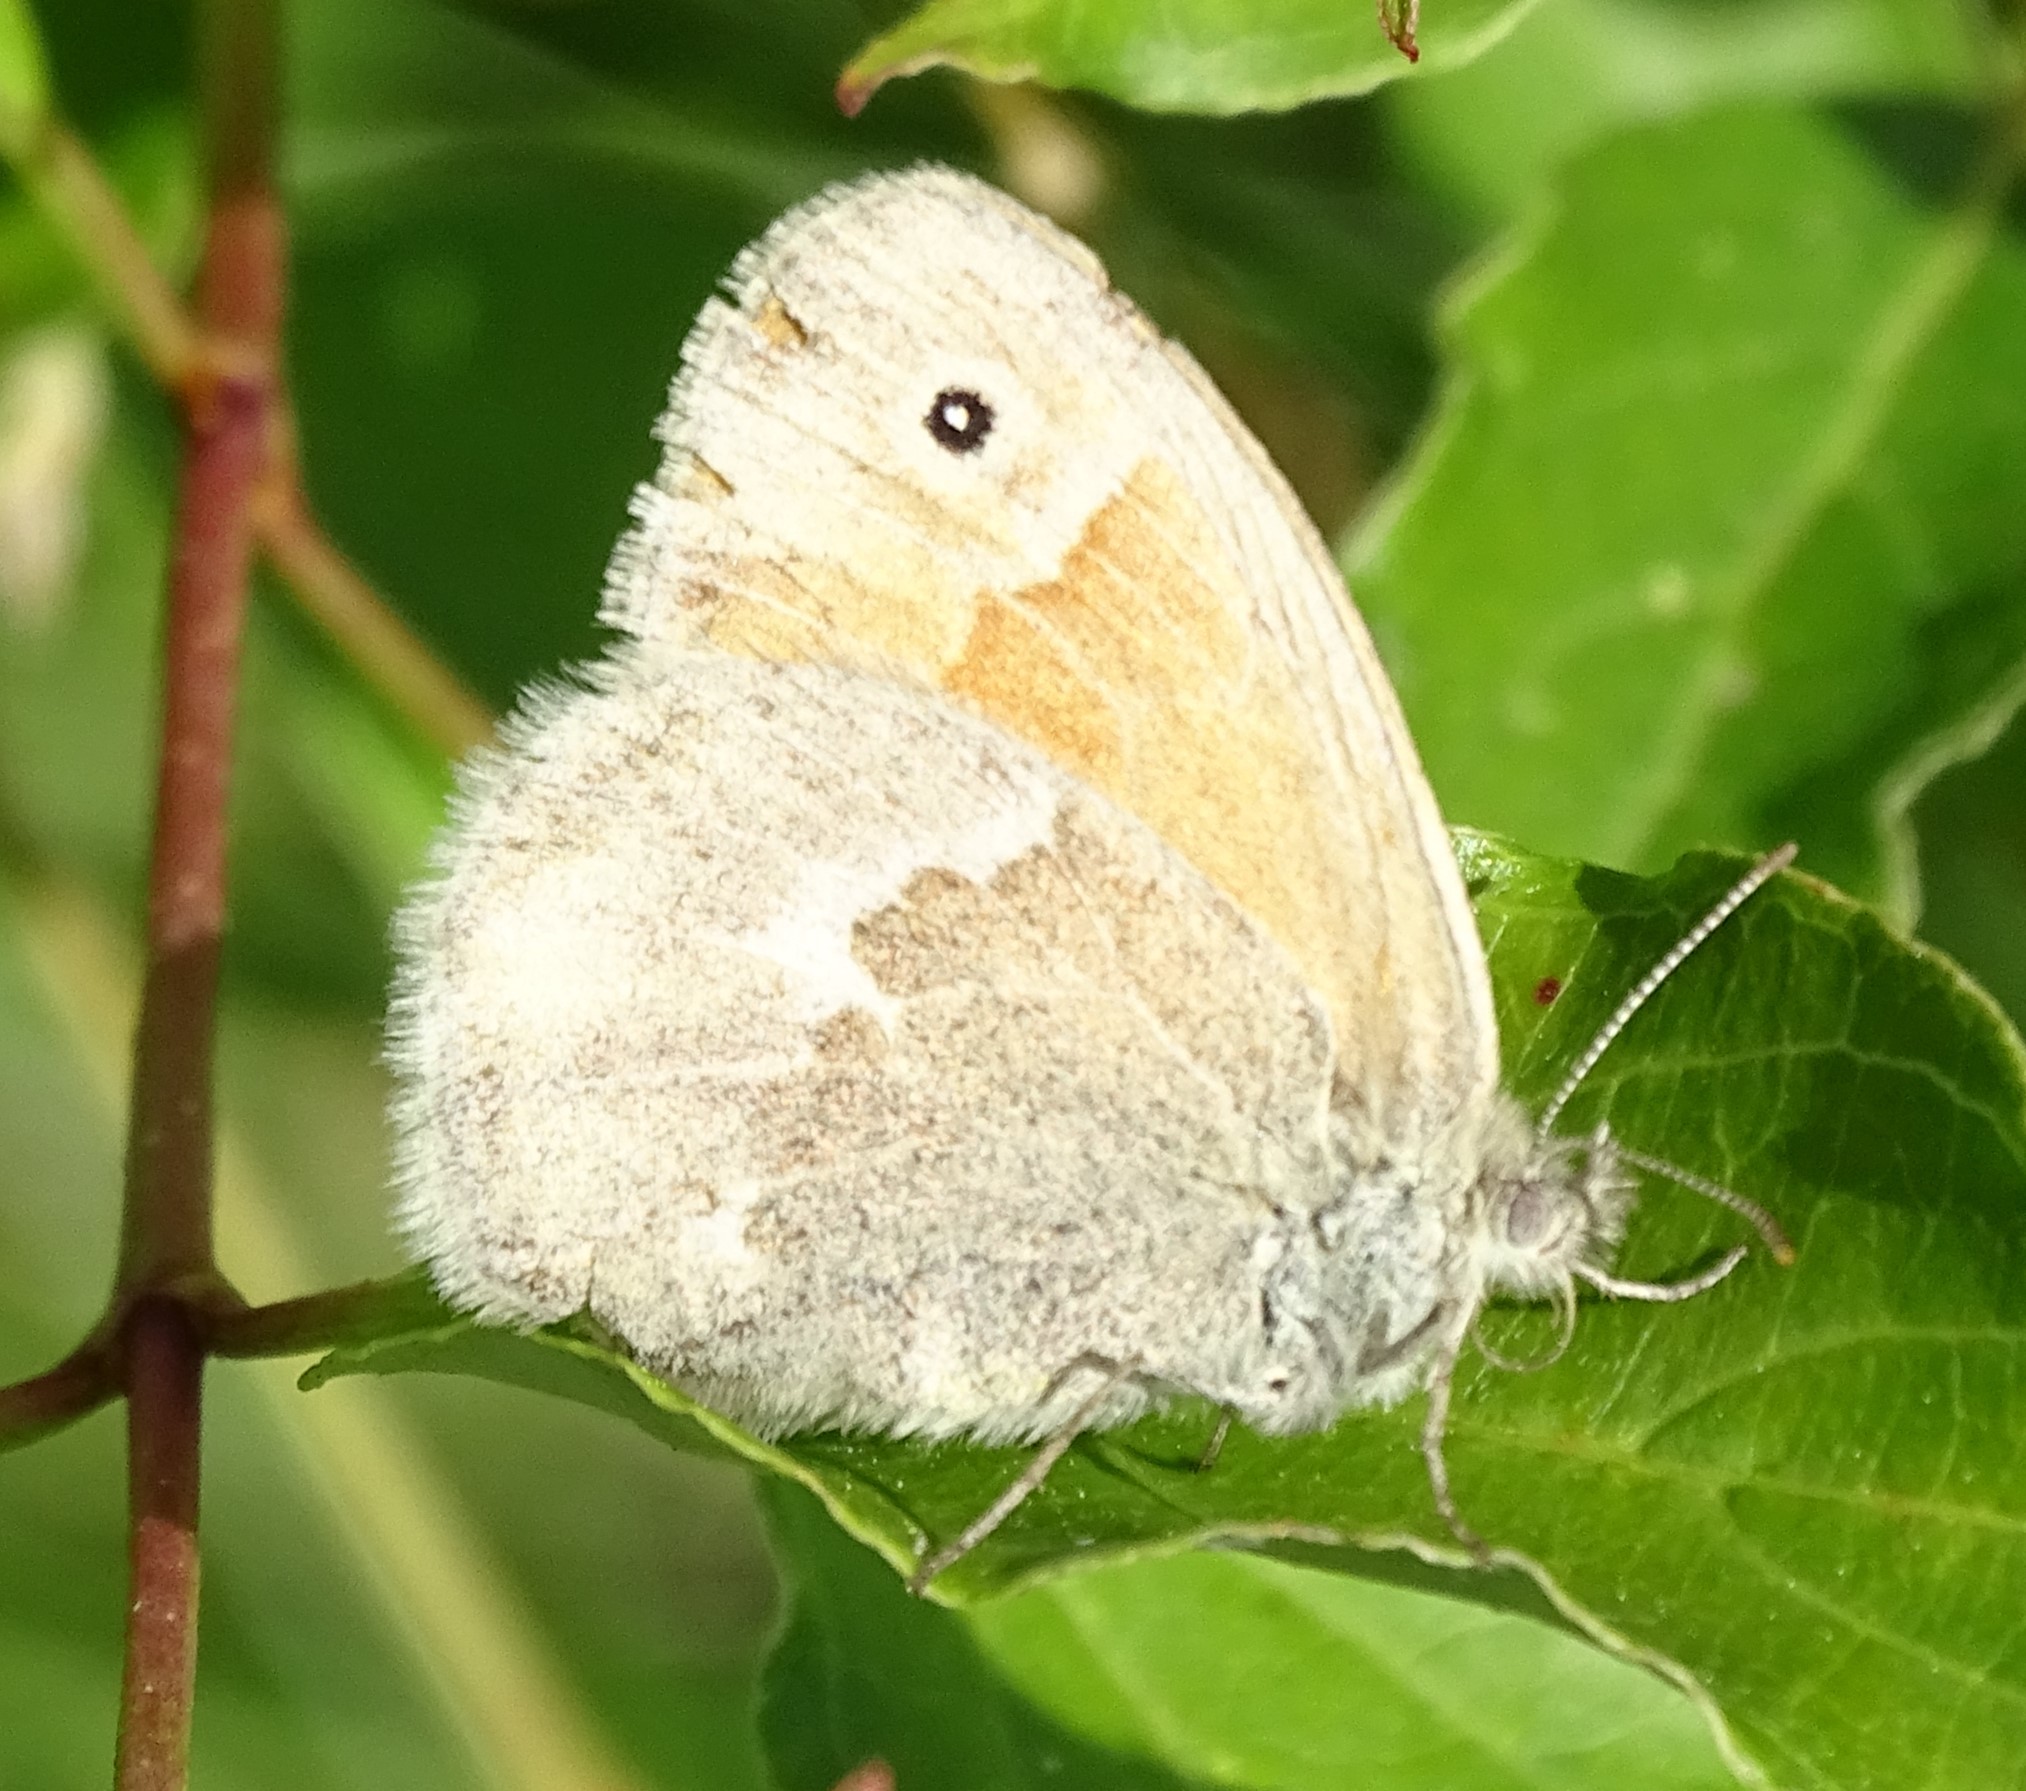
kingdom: Animalia
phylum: Arthropoda
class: Insecta
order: Lepidoptera
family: Nymphalidae
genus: Coenonympha
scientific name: Coenonympha california
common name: Common ringlet
